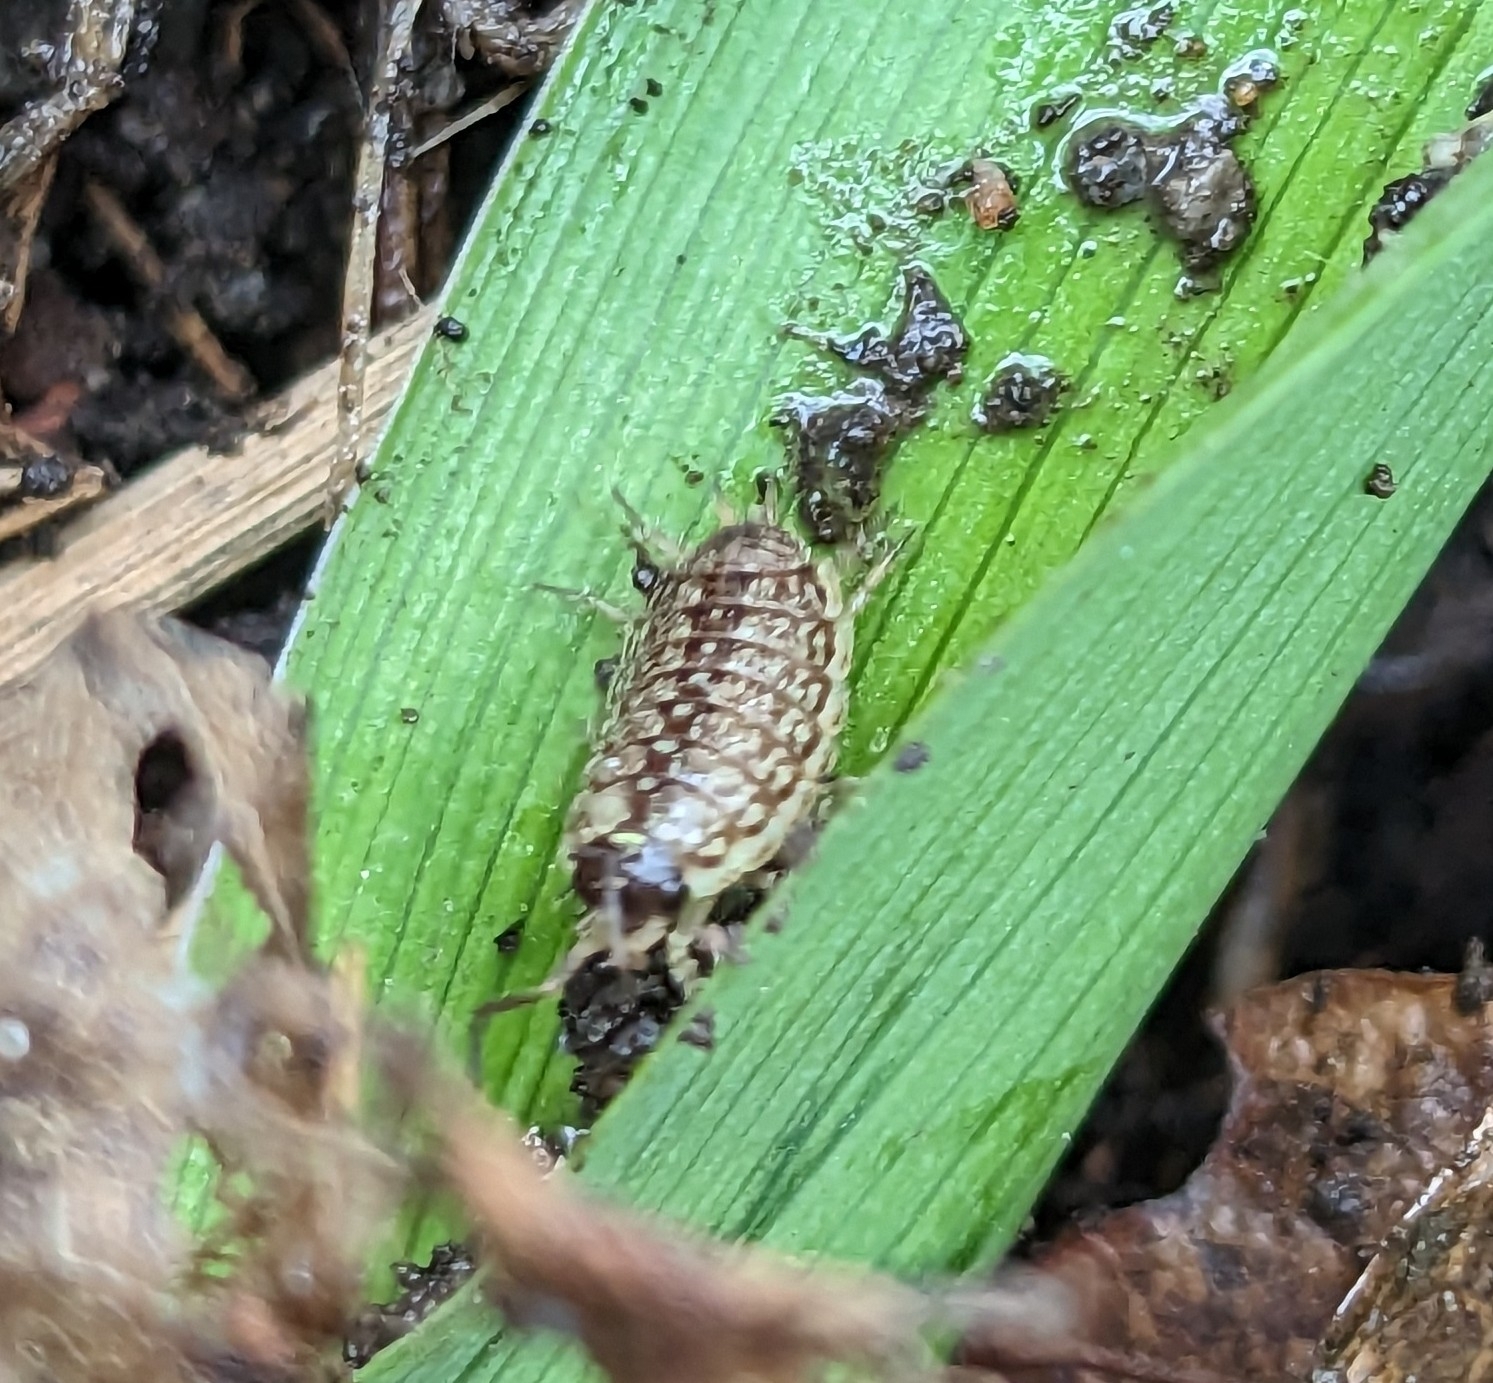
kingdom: Animalia
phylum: Arthropoda
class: Malacostraca
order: Isopoda
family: Philosciidae
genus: Philoscia
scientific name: Philoscia muscorum
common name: Common striped woodlouse
